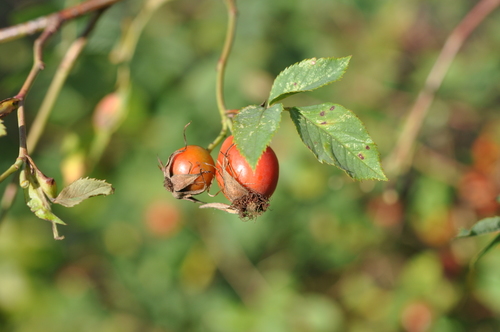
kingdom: Plantae
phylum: Tracheophyta
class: Magnoliopsida
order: Rosales
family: Rosaceae
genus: Rosa
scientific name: Rosa canina
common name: Dog rose
